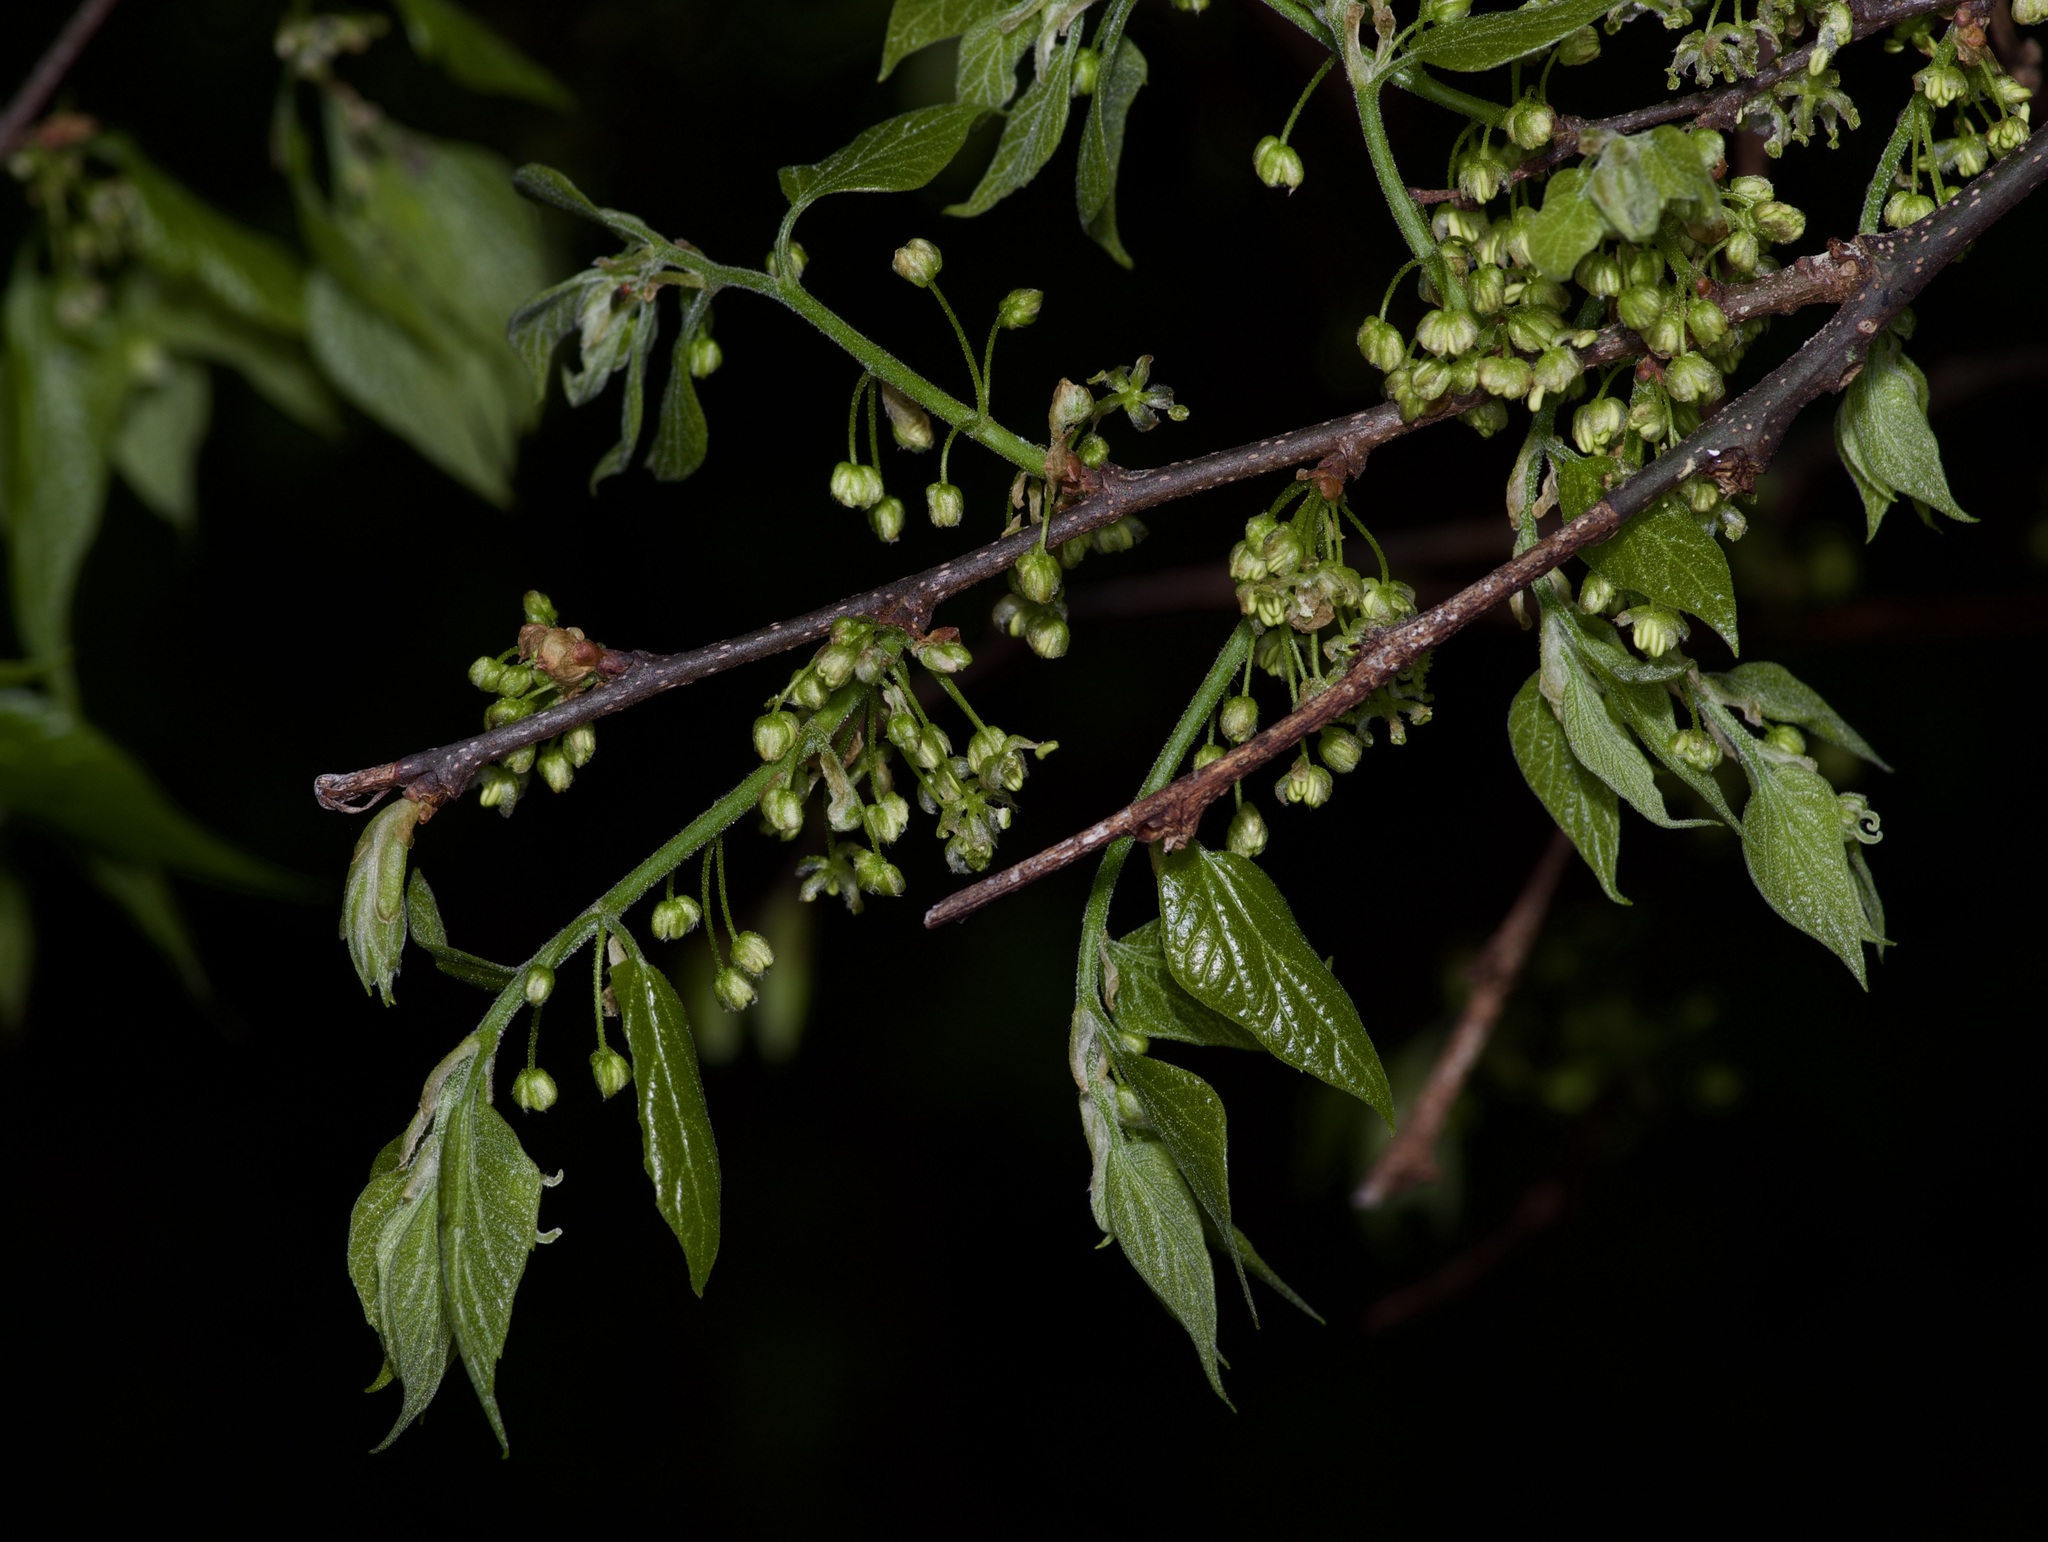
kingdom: Plantae
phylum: Tracheophyta
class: Magnoliopsida
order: Rosales
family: Cannabaceae
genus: Celtis
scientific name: Celtis laevigata
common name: Sugarberry
